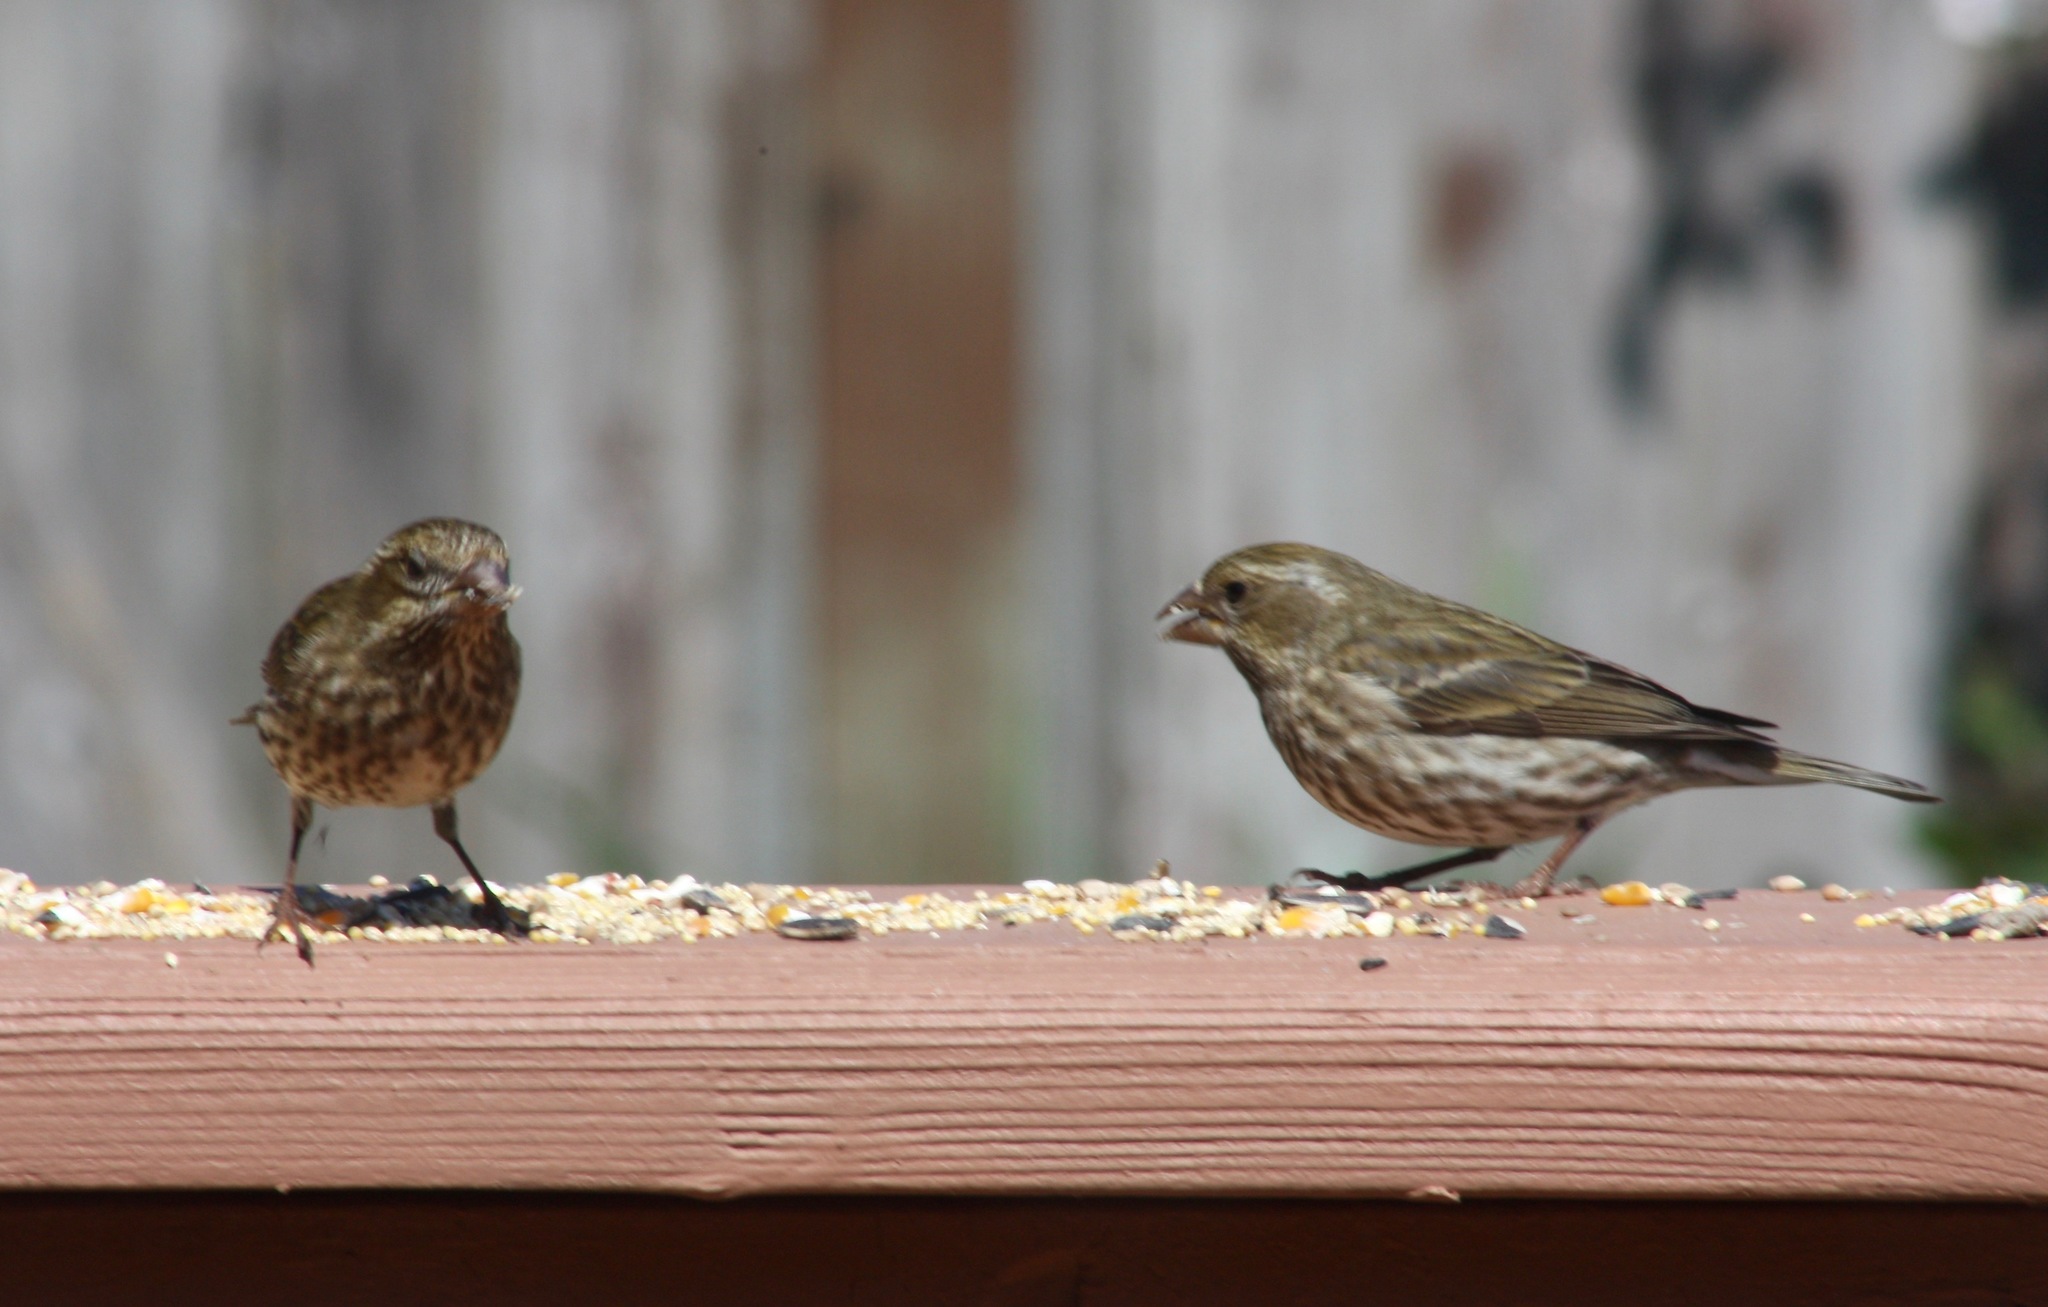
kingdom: Animalia
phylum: Chordata
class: Aves
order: Passeriformes
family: Fringillidae
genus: Spinus
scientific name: Spinus pinus
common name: Pine siskin
